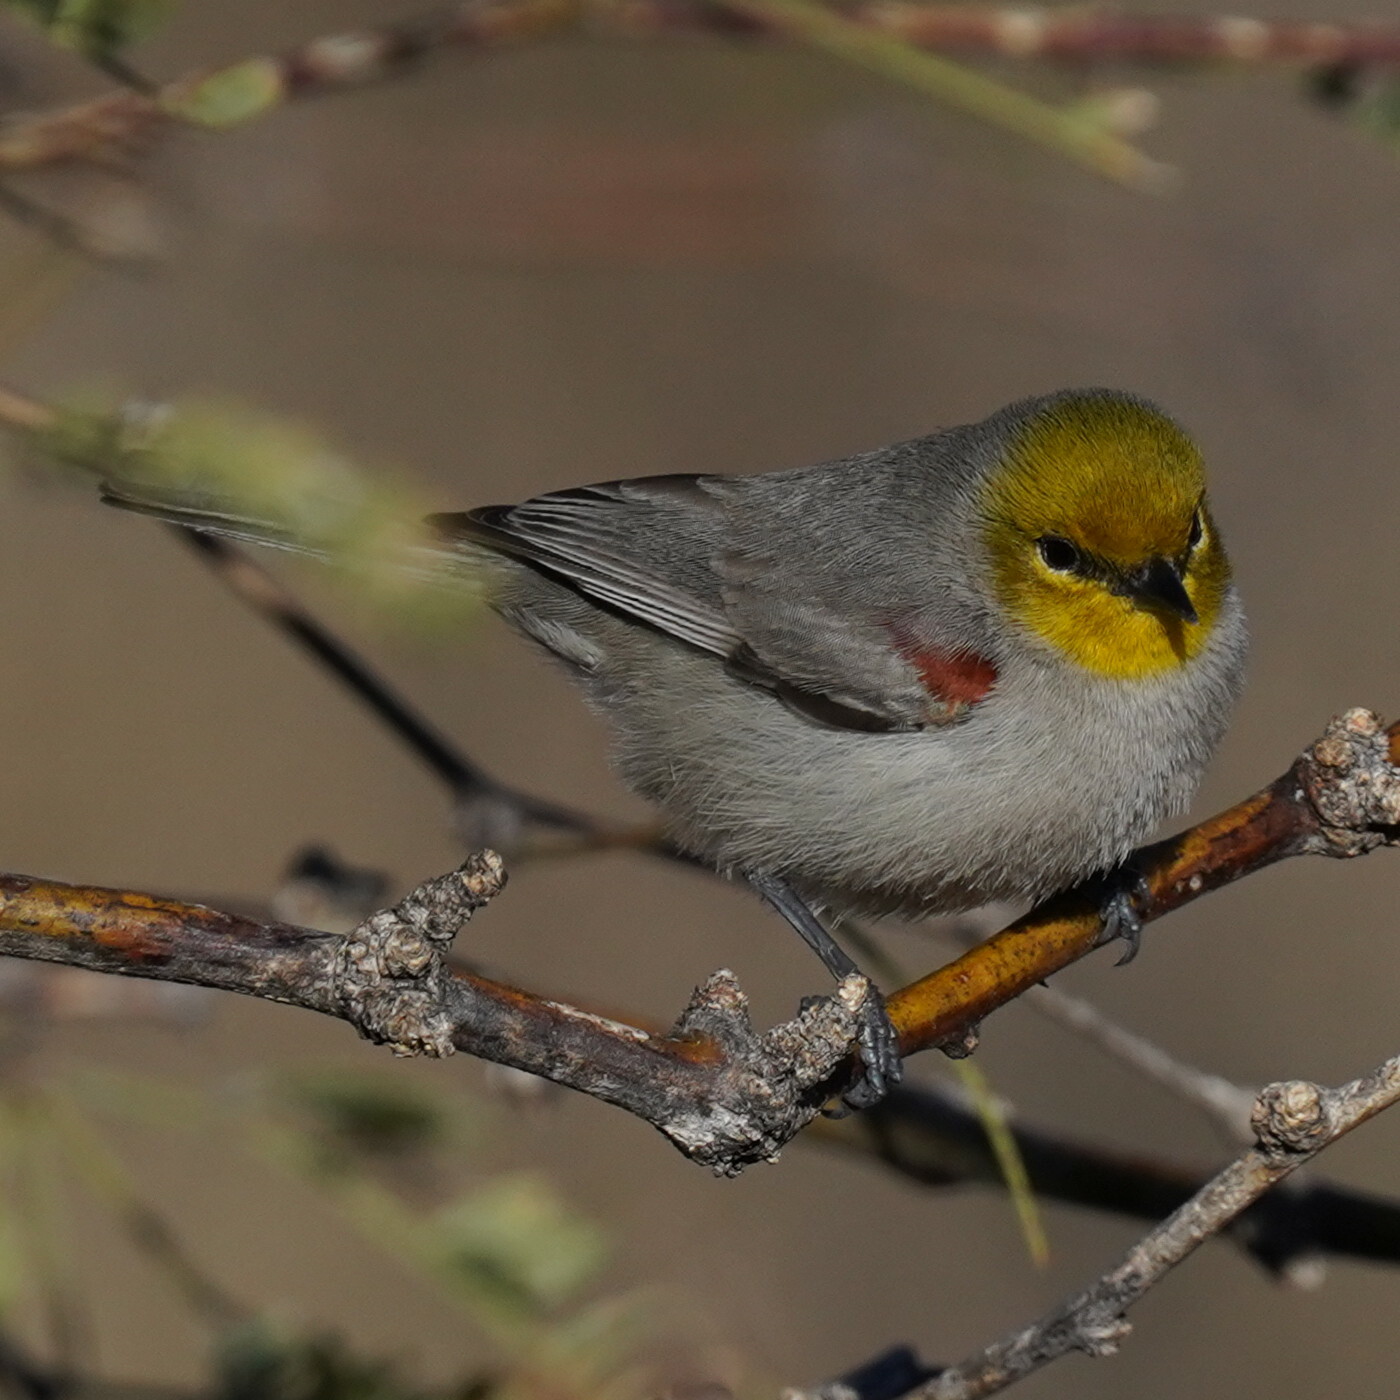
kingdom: Animalia
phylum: Chordata
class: Aves
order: Passeriformes
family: Remizidae
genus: Auriparus
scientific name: Auriparus flaviceps
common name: Verdin
